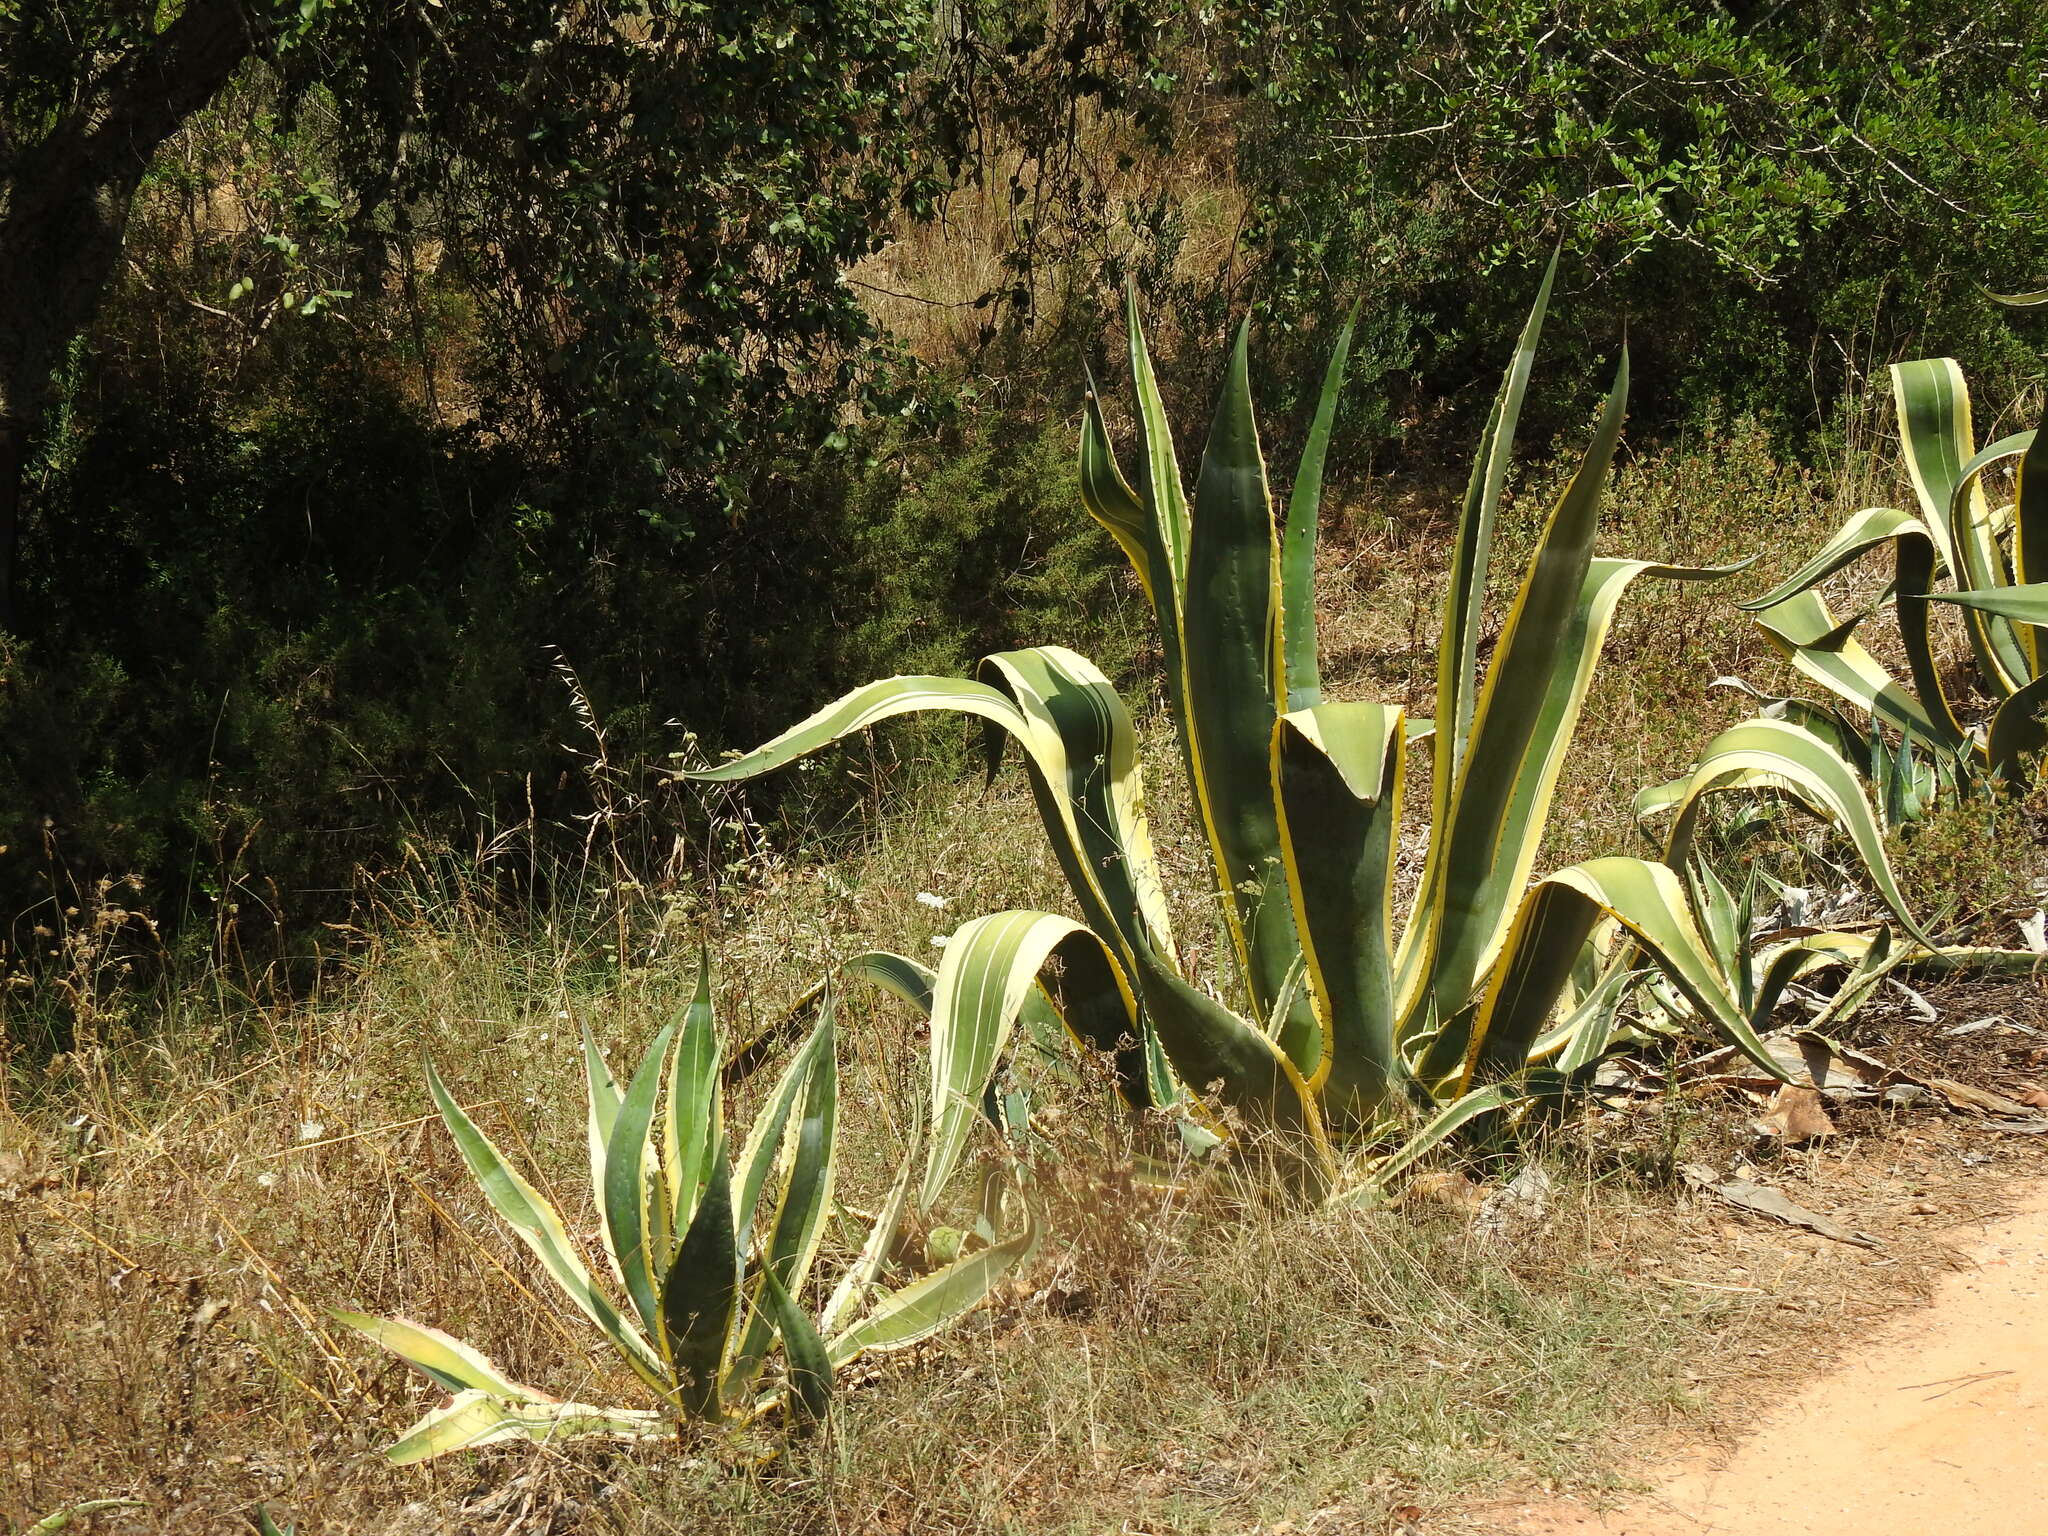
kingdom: Plantae
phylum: Tracheophyta
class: Liliopsida
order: Asparagales
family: Asparagaceae
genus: Agave
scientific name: Agave americana
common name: Centuryplant
